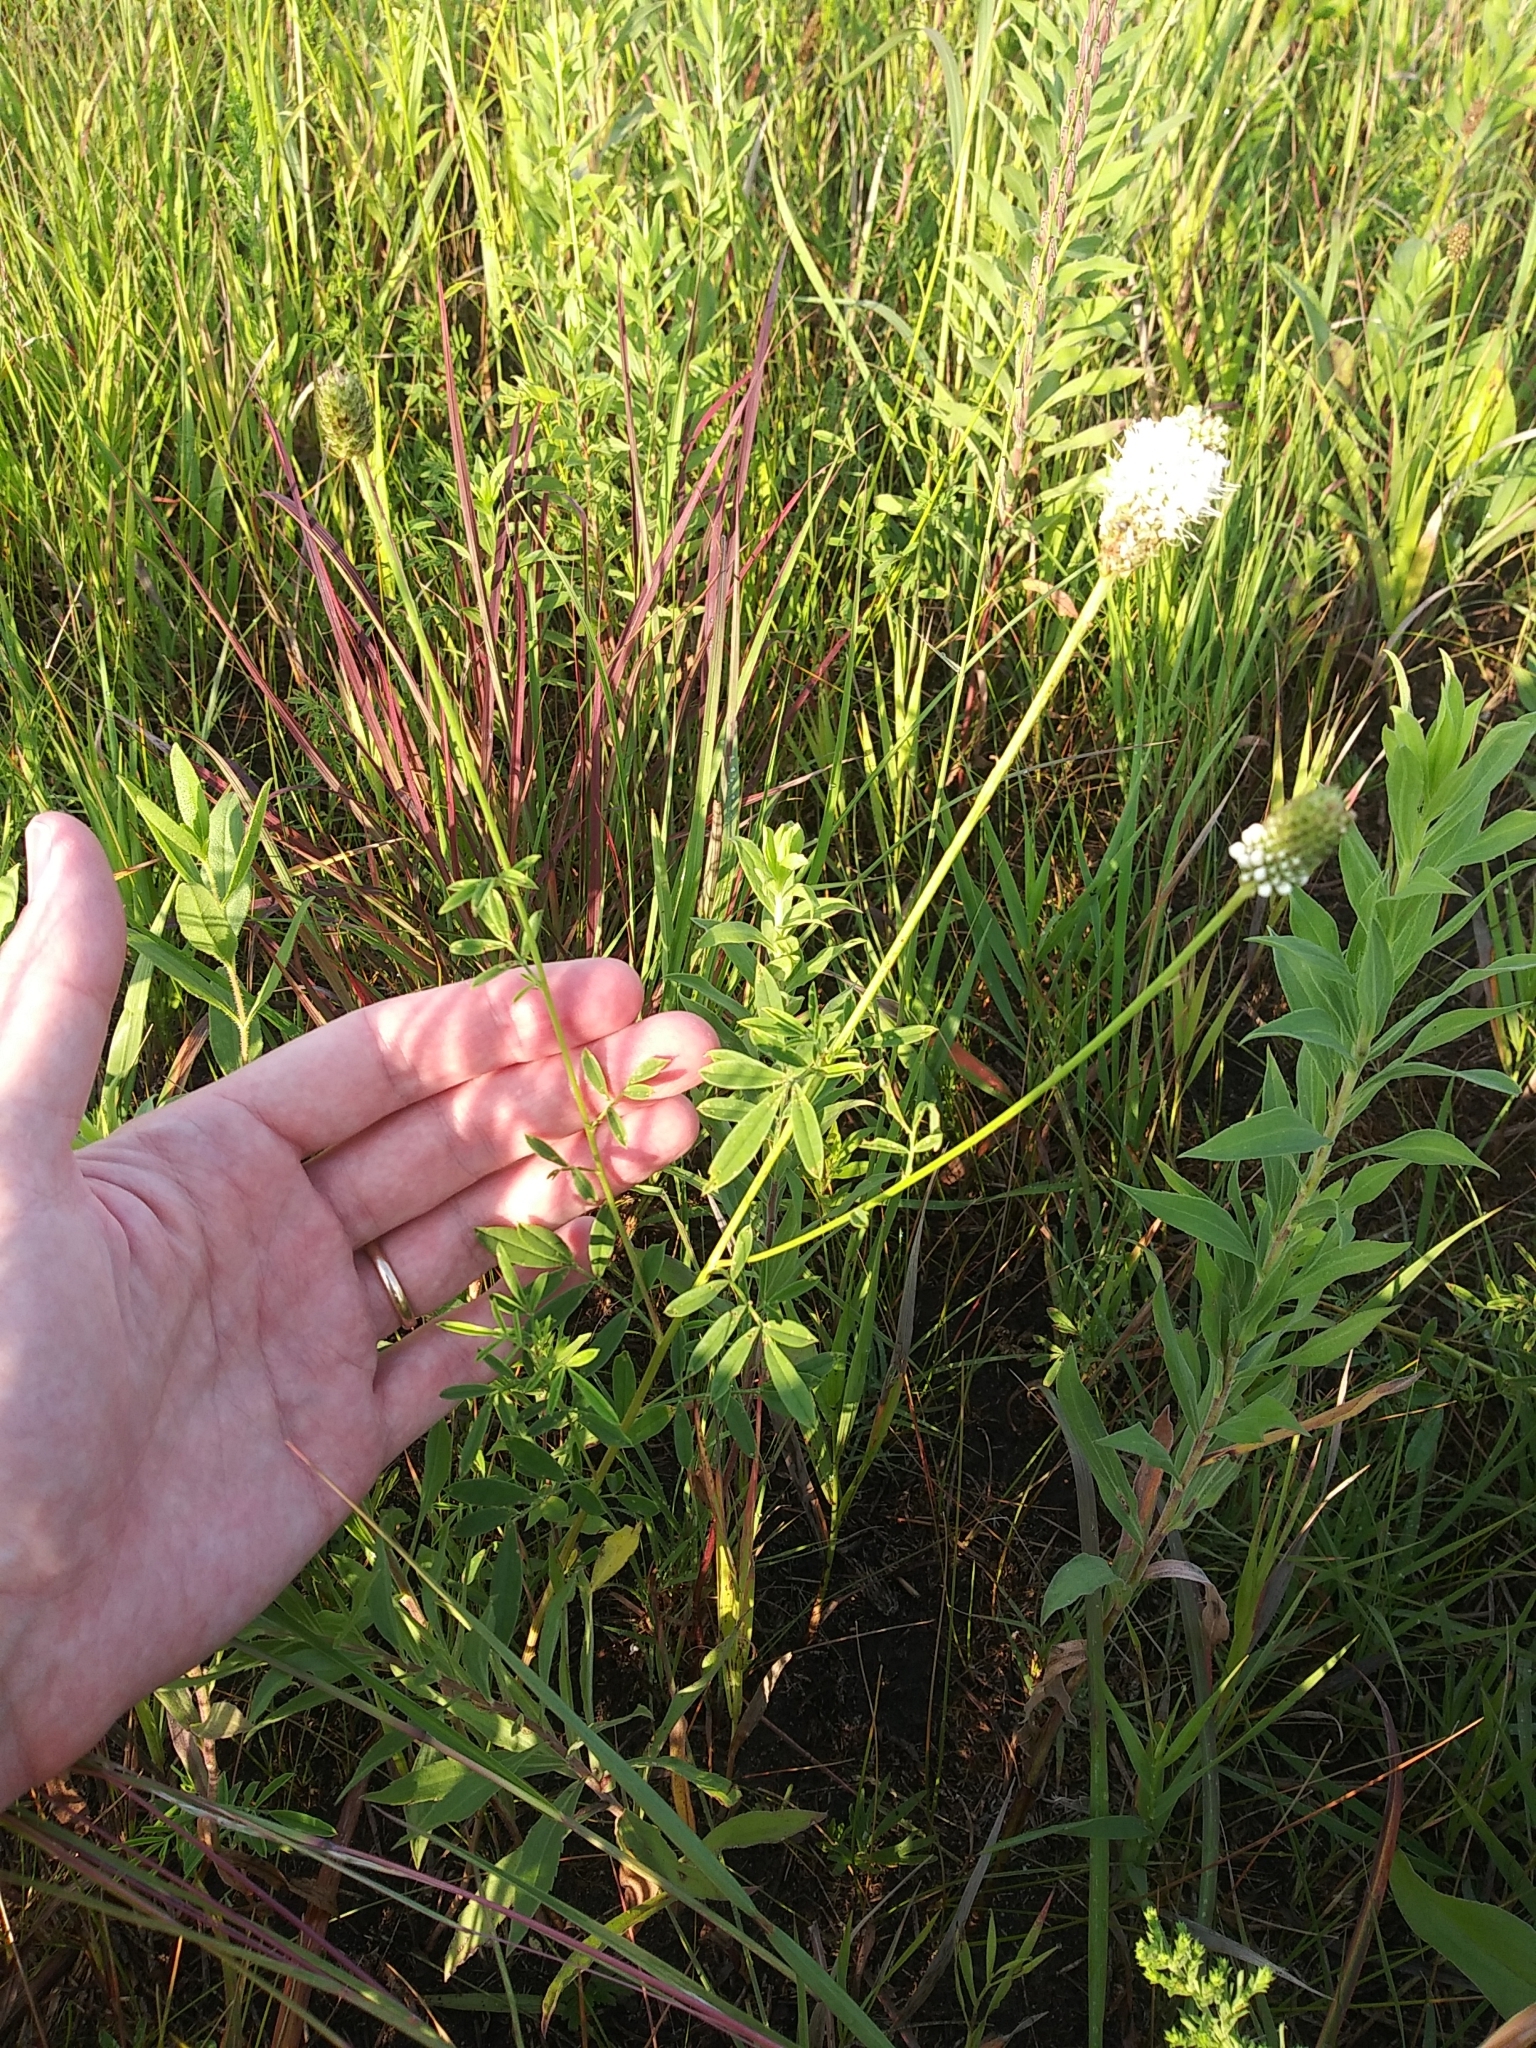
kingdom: Plantae
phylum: Tracheophyta
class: Magnoliopsida
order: Fabales
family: Fabaceae
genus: Dalea
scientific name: Dalea candida
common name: White prairie-clover
